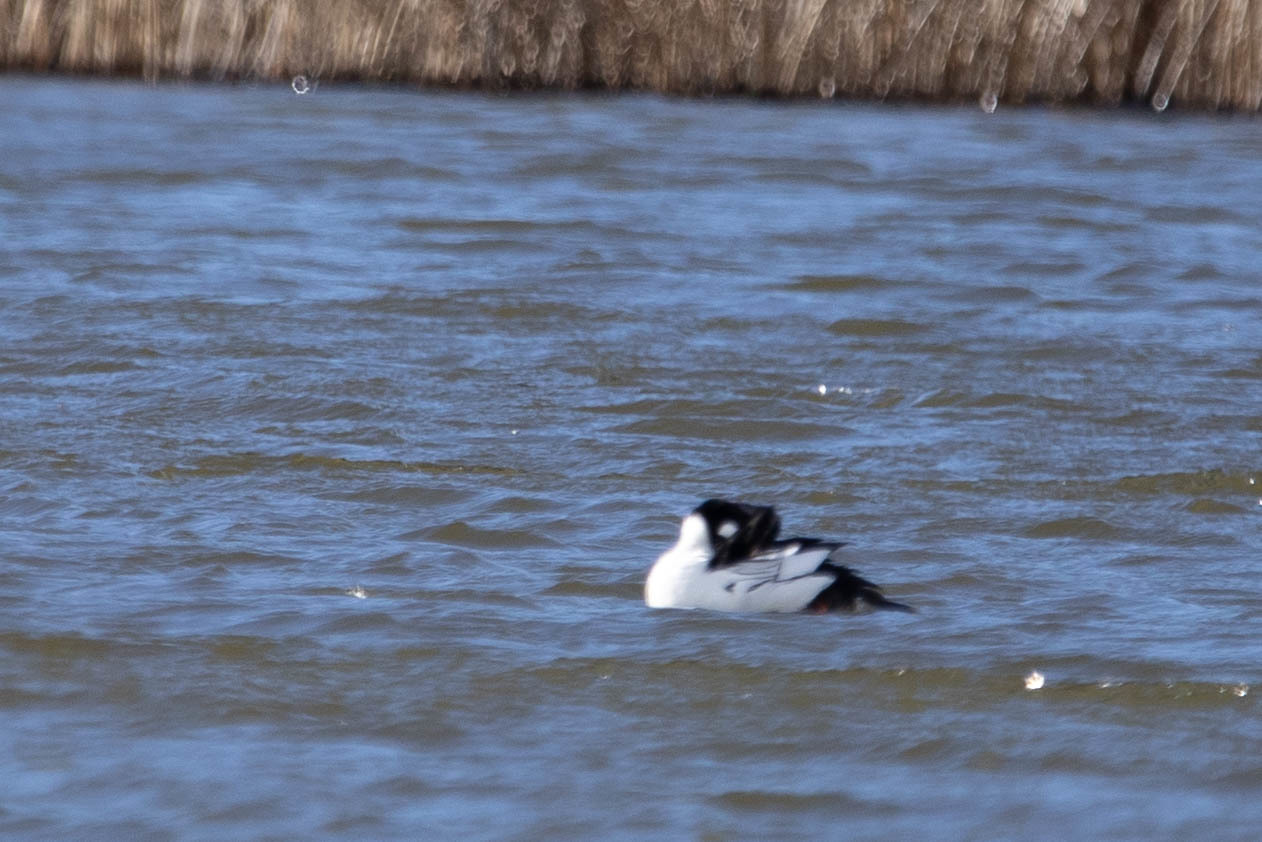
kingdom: Animalia
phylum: Chordata
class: Aves
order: Anseriformes
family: Anatidae
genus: Bucephala
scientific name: Bucephala clangula
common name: Common goldeneye
